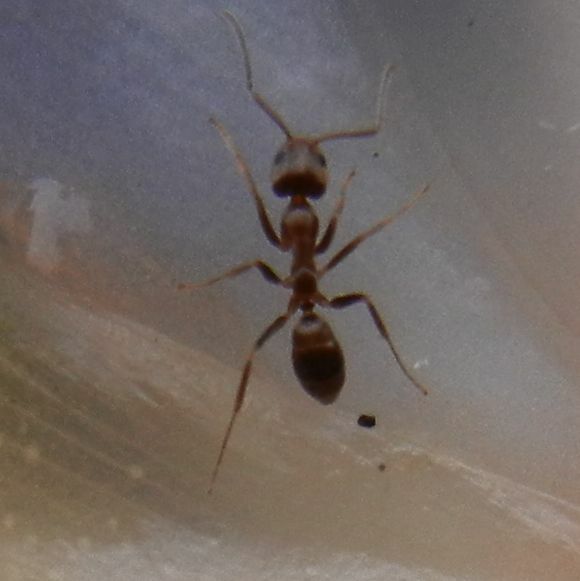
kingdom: Animalia
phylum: Arthropoda
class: Insecta
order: Hymenoptera
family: Formicidae
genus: Linepithema
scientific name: Linepithema humile
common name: Argentine ant
